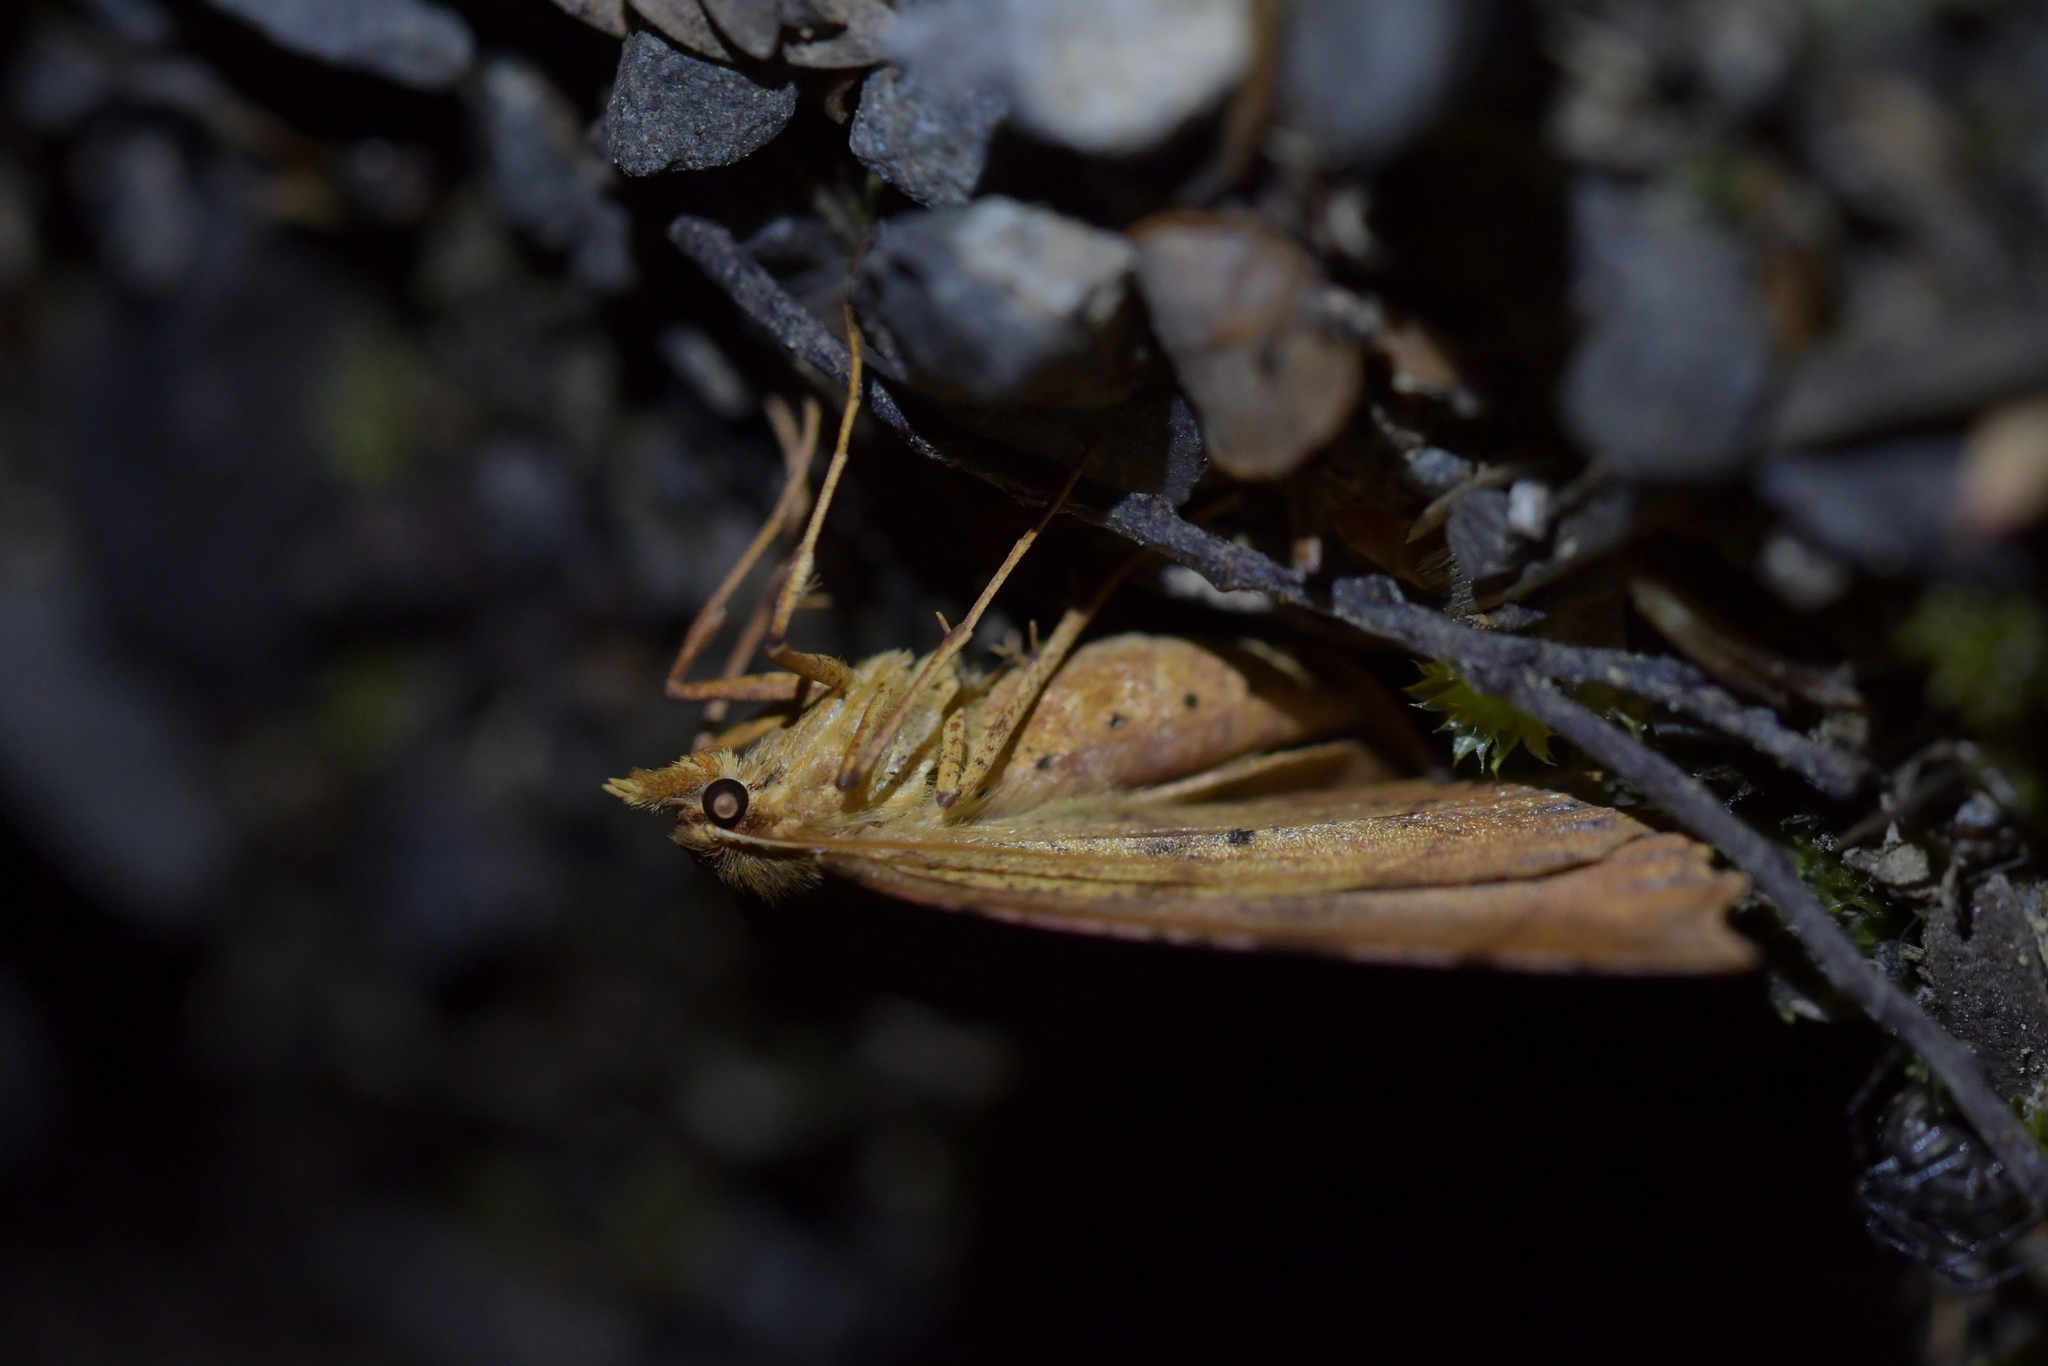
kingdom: Animalia
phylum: Arthropoda
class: Insecta
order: Lepidoptera
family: Geometridae
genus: Ischalis
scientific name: Ischalis variabilis
